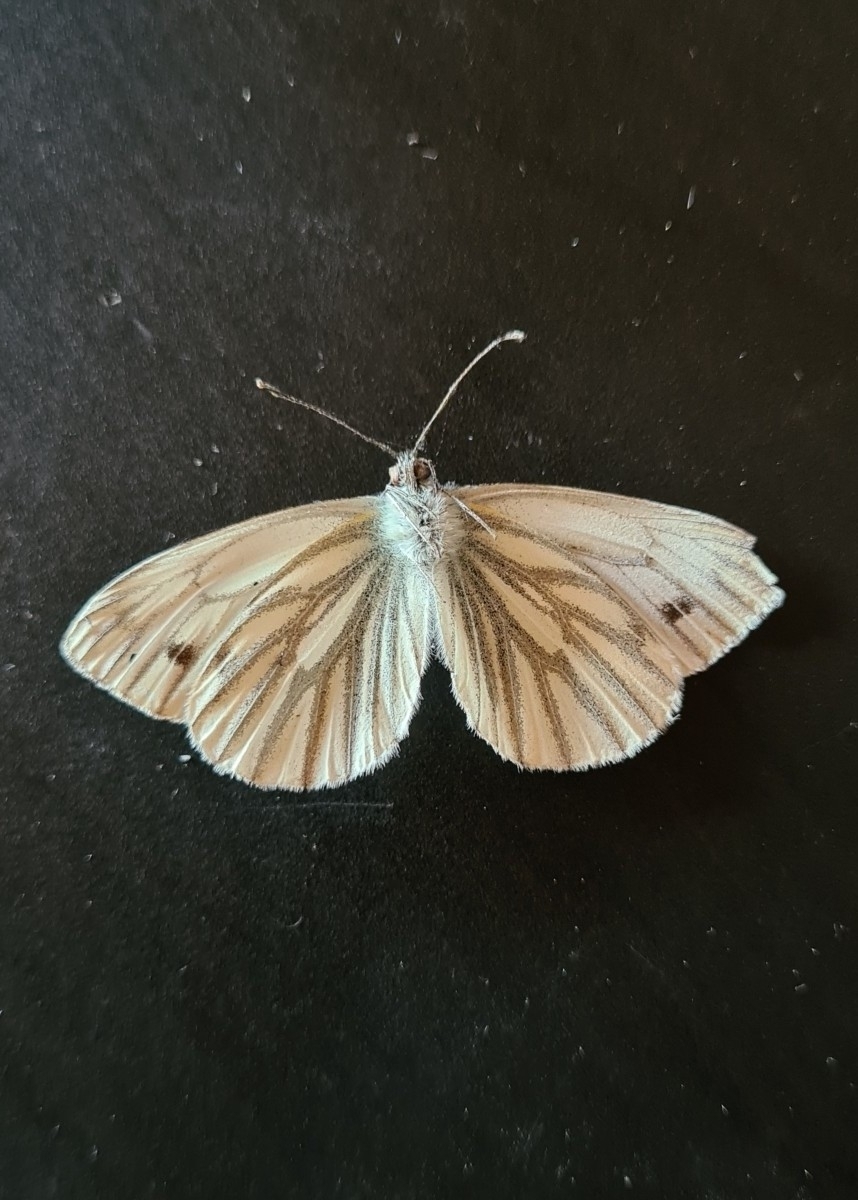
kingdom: Animalia
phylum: Arthropoda
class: Insecta
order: Lepidoptera
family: Pieridae
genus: Pieris
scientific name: Pieris napi
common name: Green-veined white
